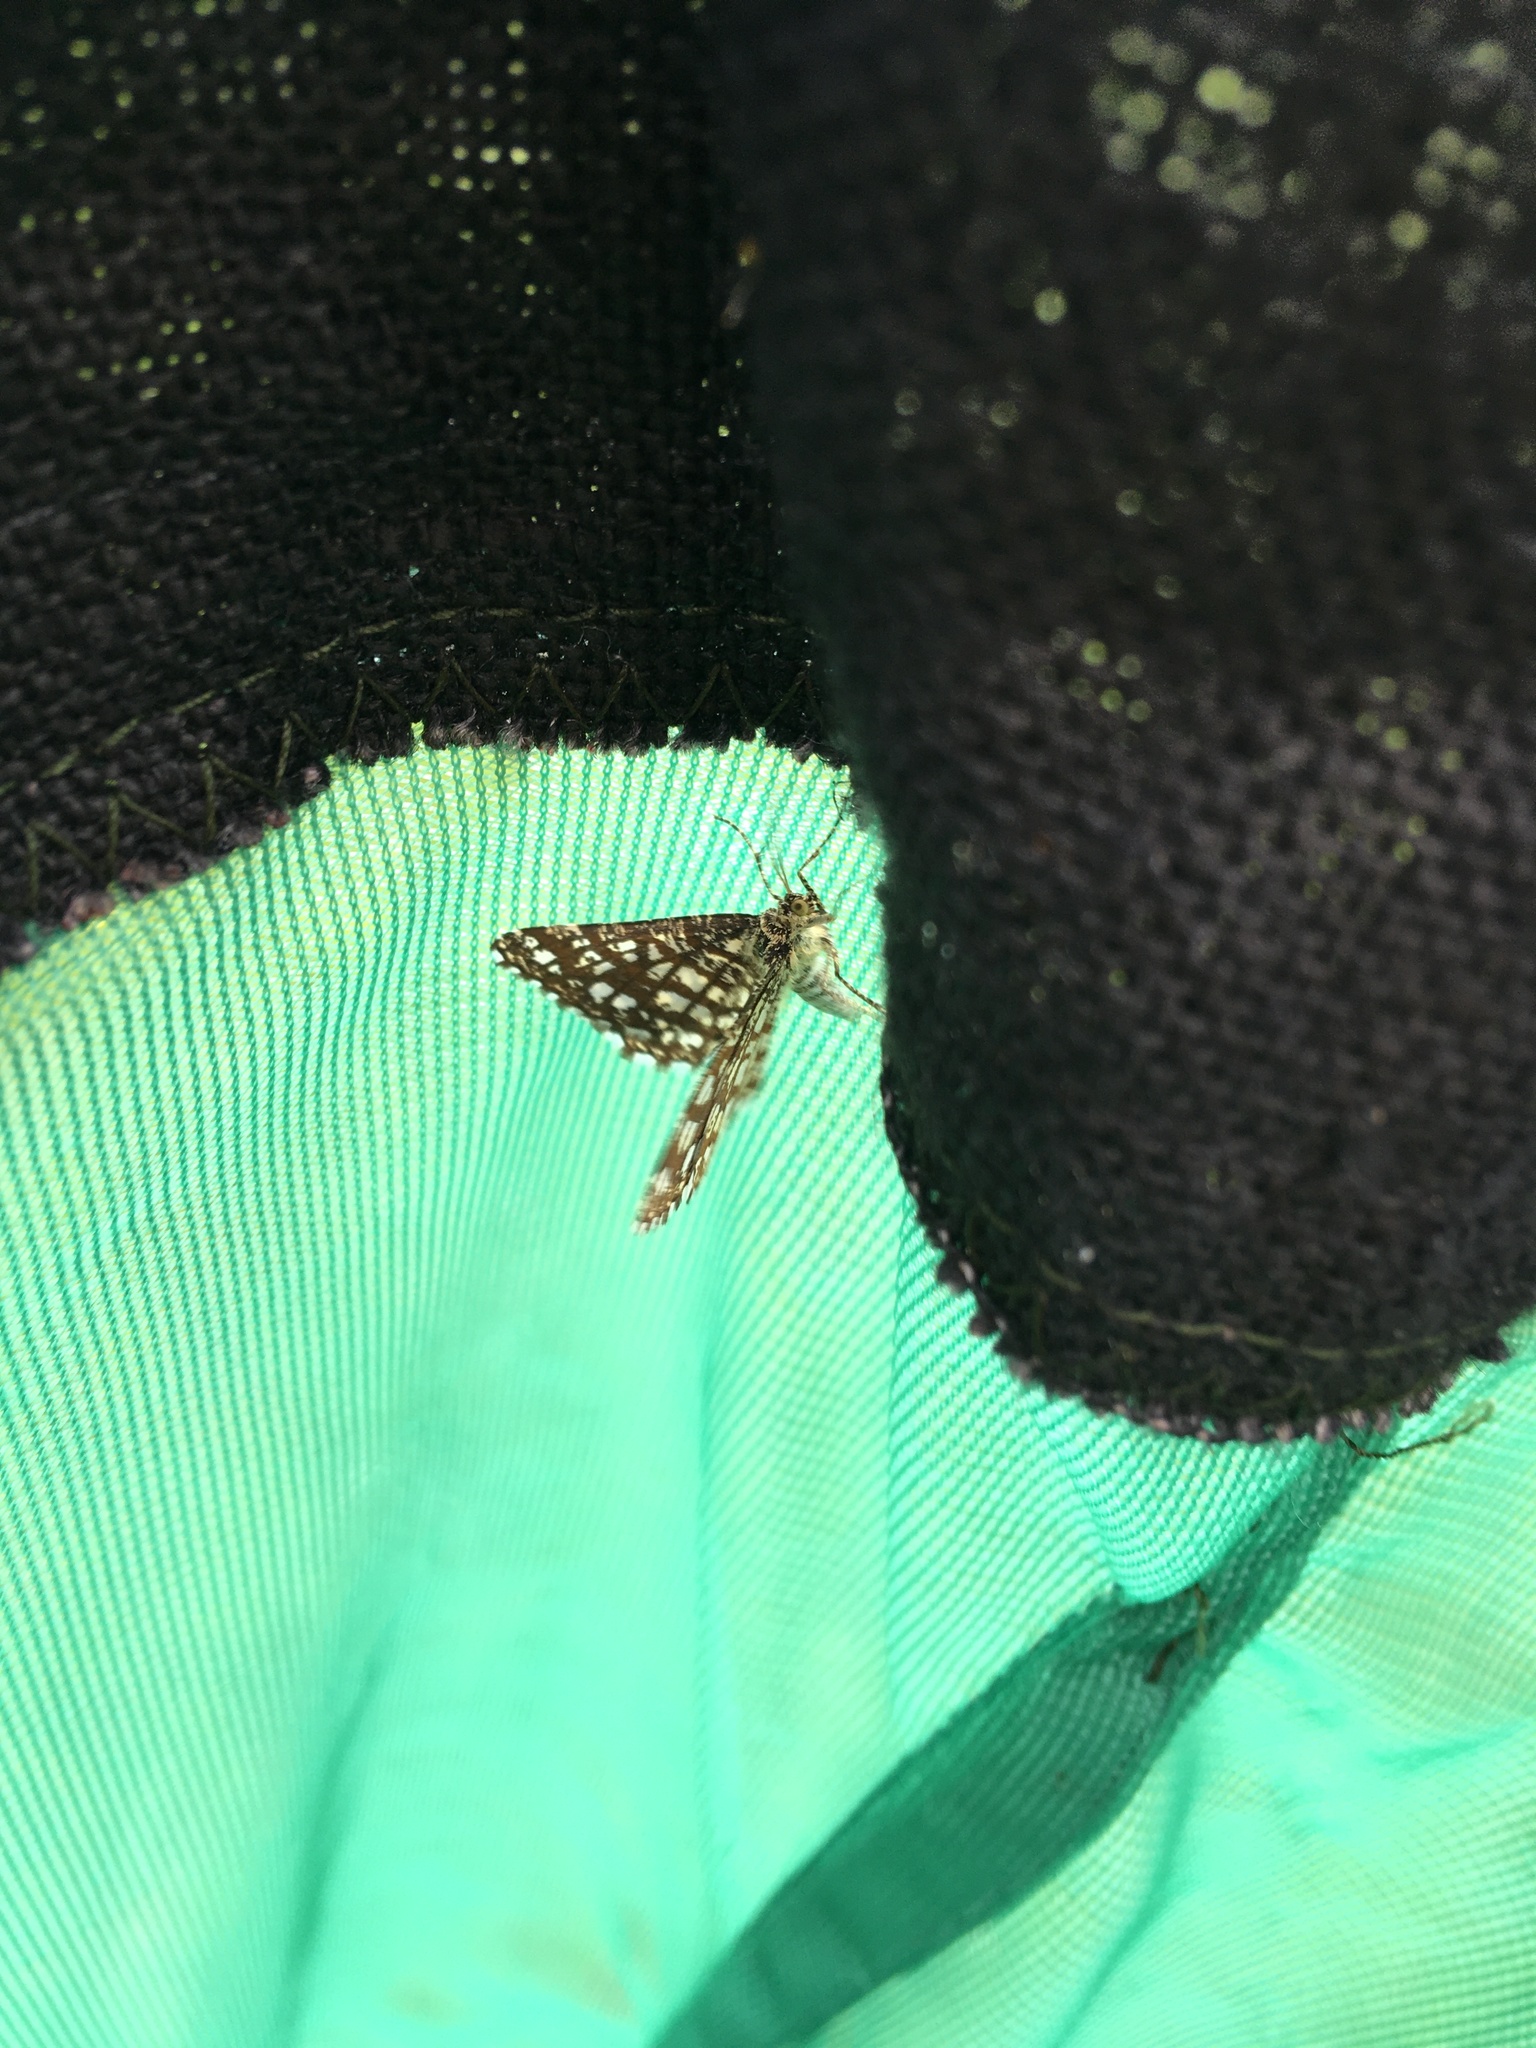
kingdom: Animalia
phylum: Arthropoda
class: Insecta
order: Lepidoptera
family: Geometridae
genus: Chiasmia
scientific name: Chiasmia clathrata
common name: Latticed heath
